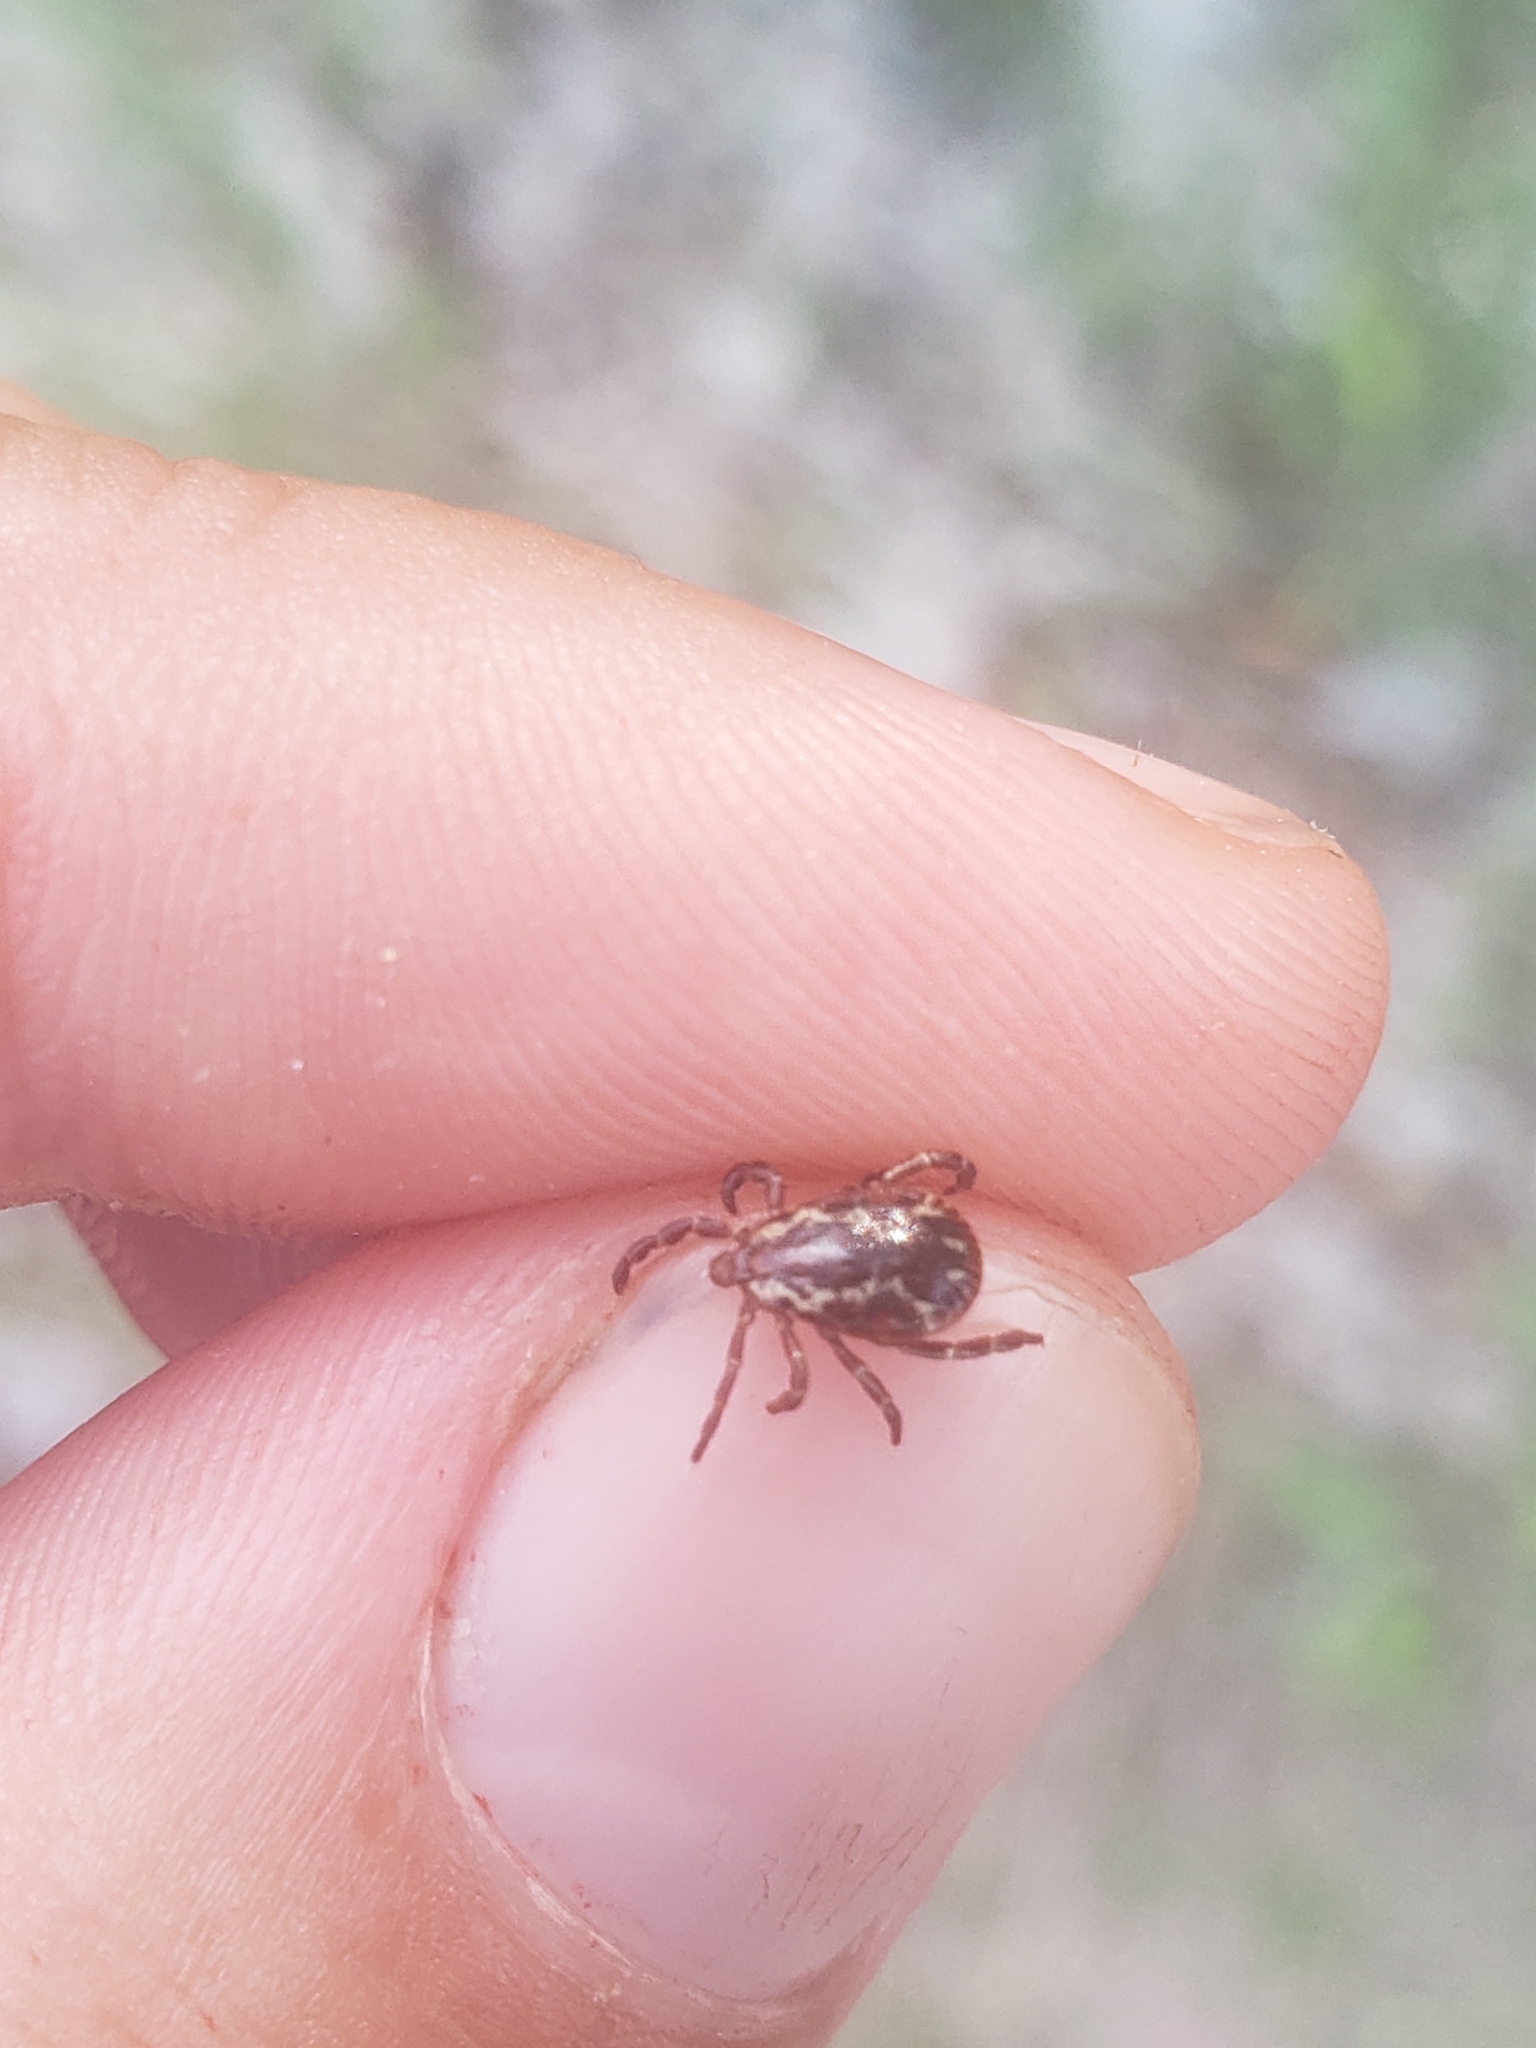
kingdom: Animalia
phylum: Arthropoda
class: Arachnida
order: Ixodida
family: Ixodidae
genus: Dermacentor
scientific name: Dermacentor variabilis
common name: American dog tick
